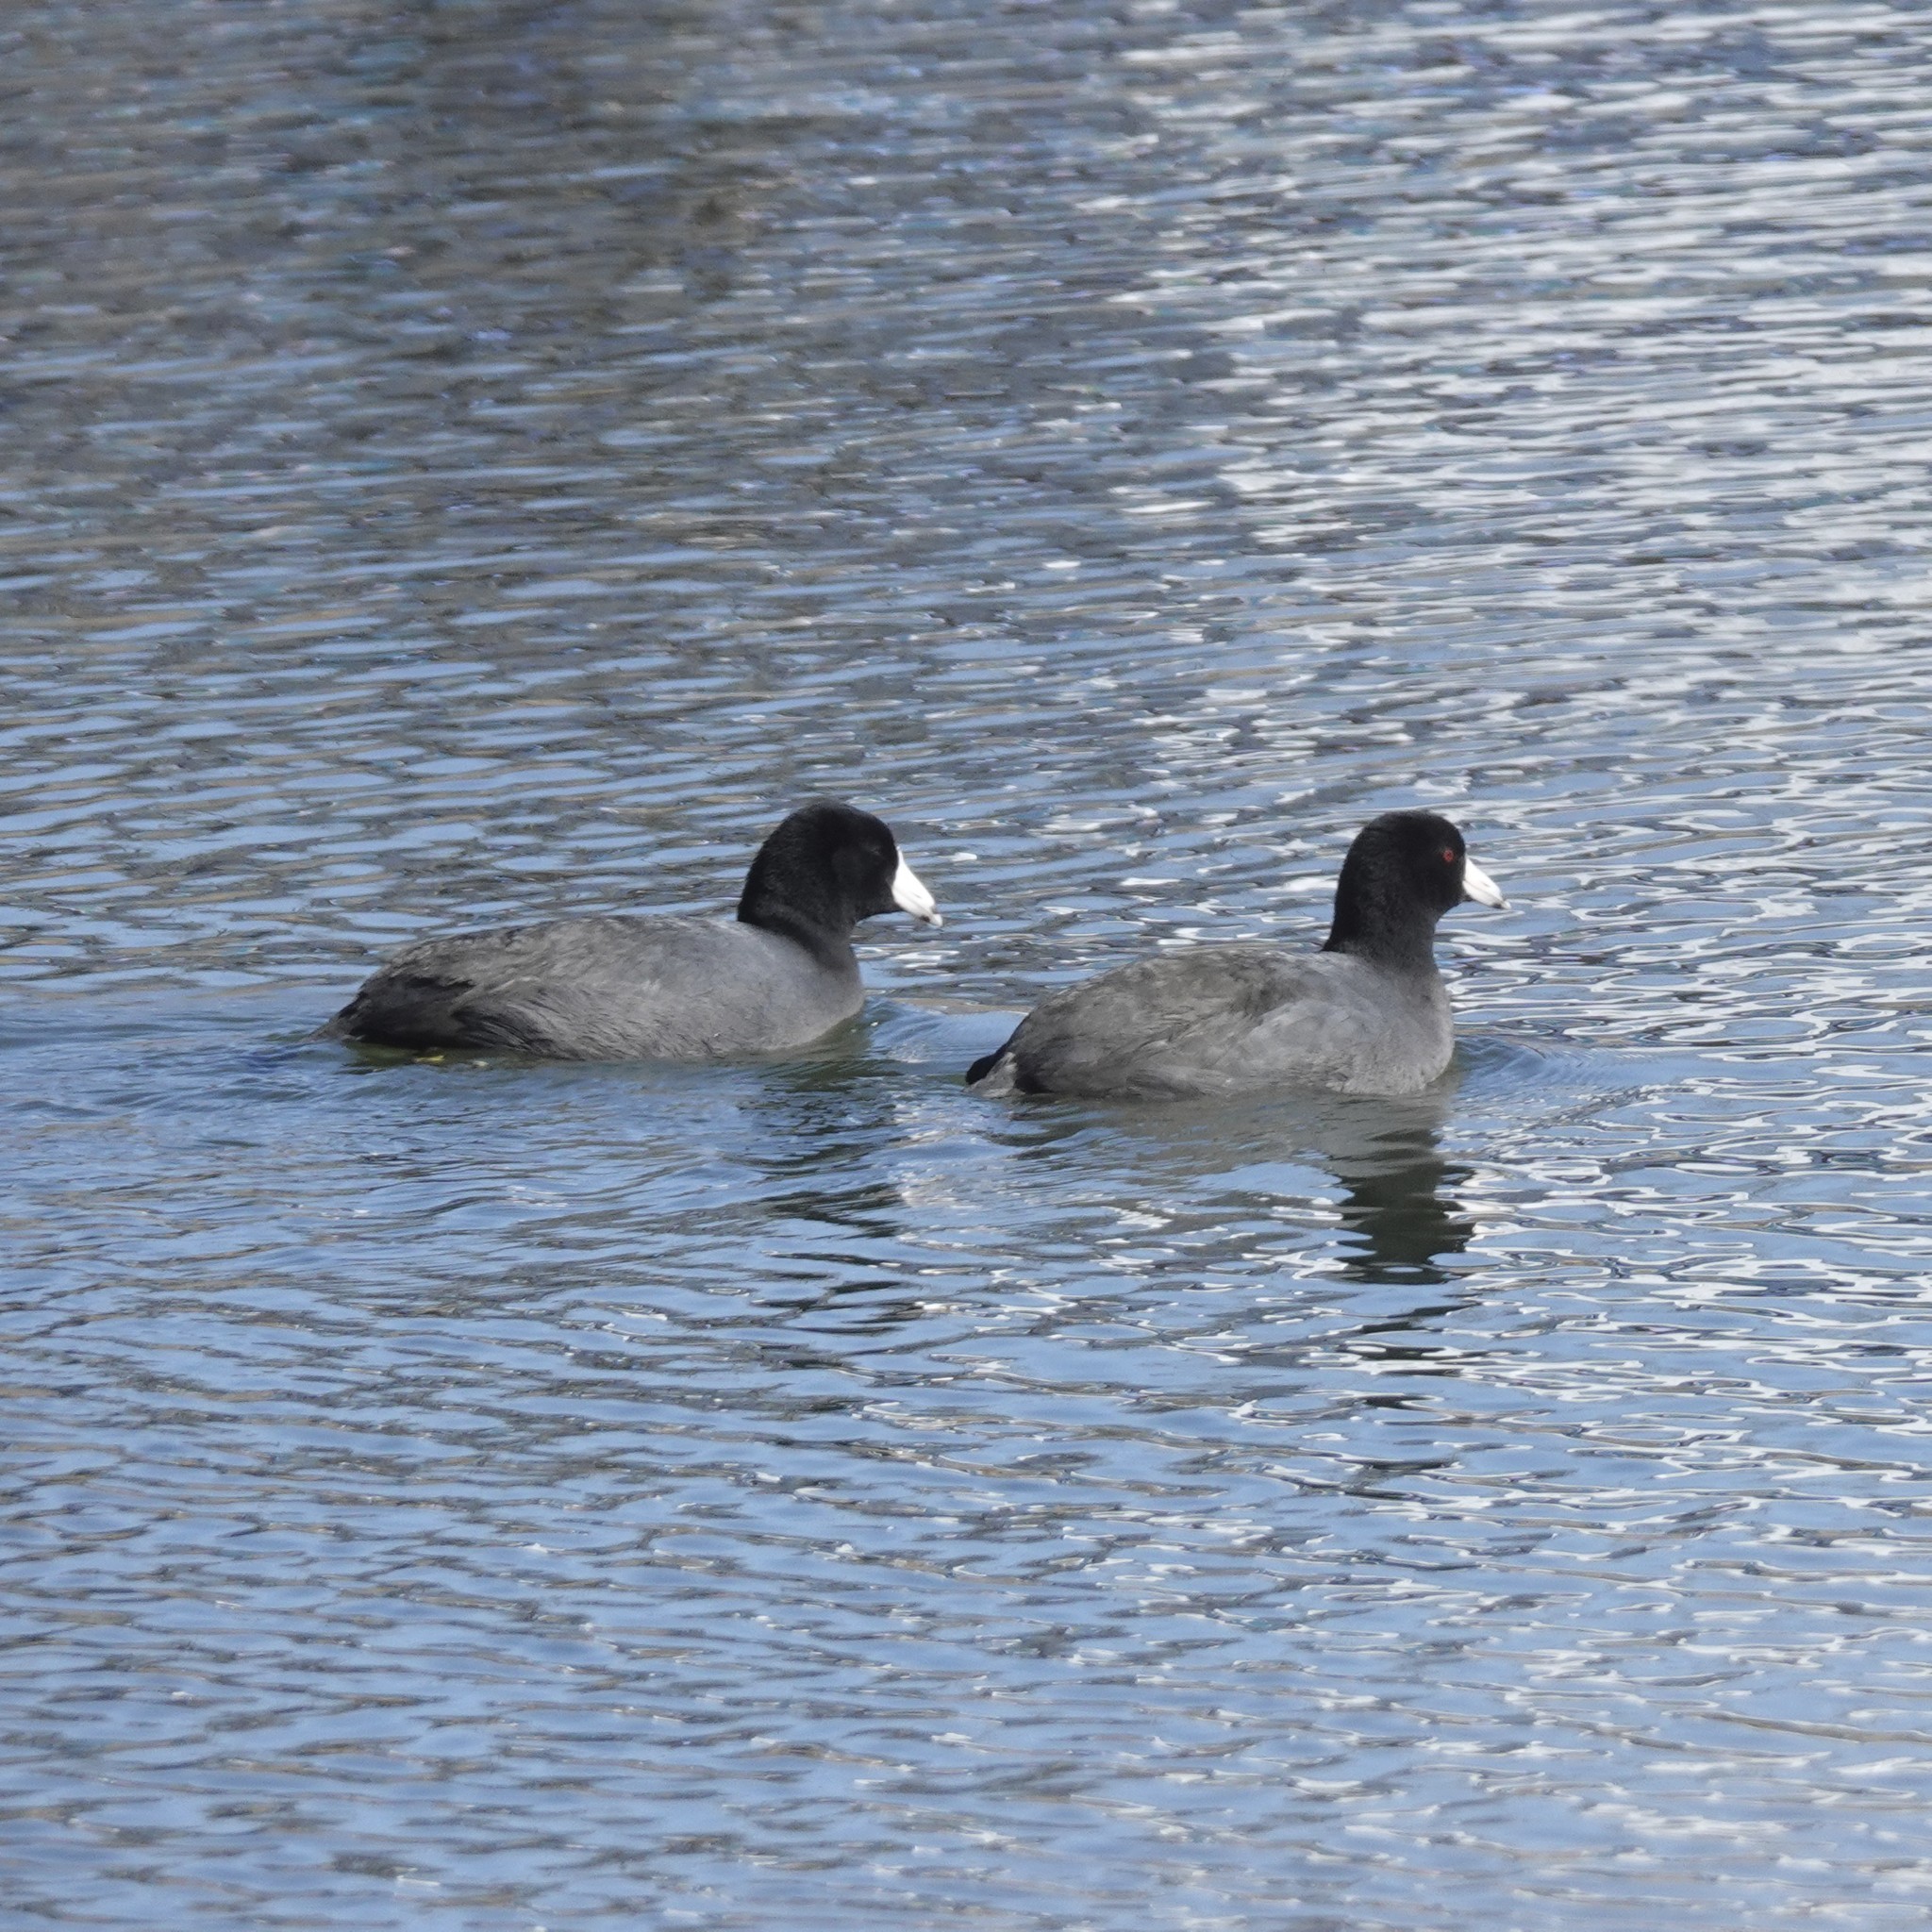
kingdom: Animalia
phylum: Chordata
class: Aves
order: Gruiformes
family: Rallidae
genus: Fulica
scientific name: Fulica americana
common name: American coot
